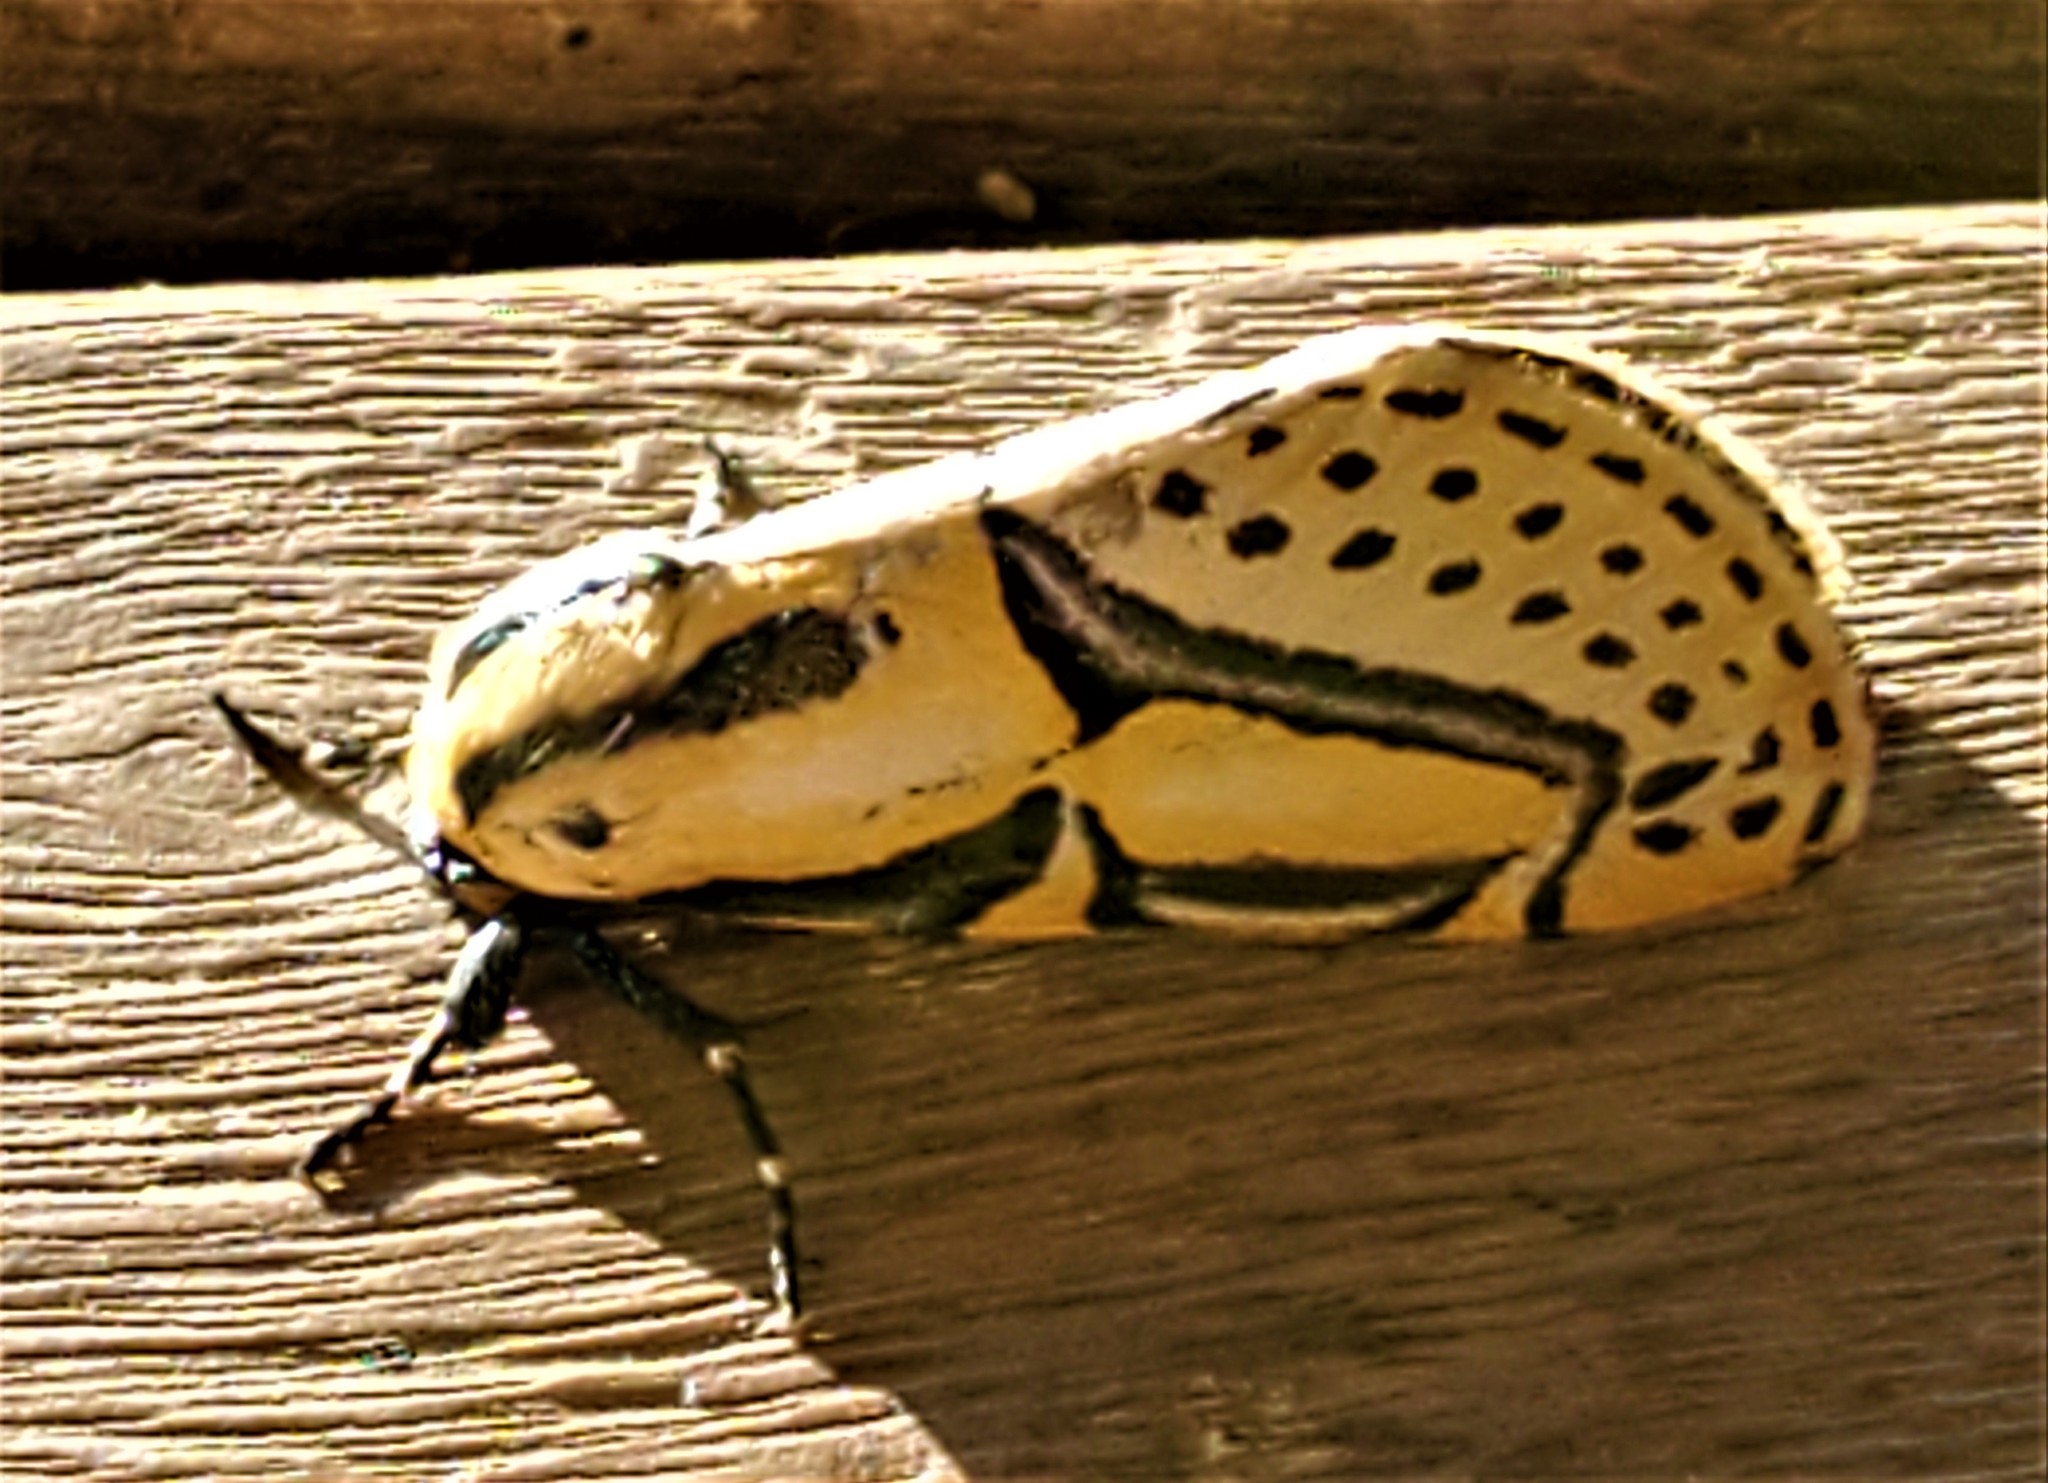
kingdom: Animalia
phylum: Arthropoda
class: Insecta
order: Lepidoptera
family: Erebidae
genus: Diphthera
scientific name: Diphthera festiva
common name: Hieroglyphic moth
